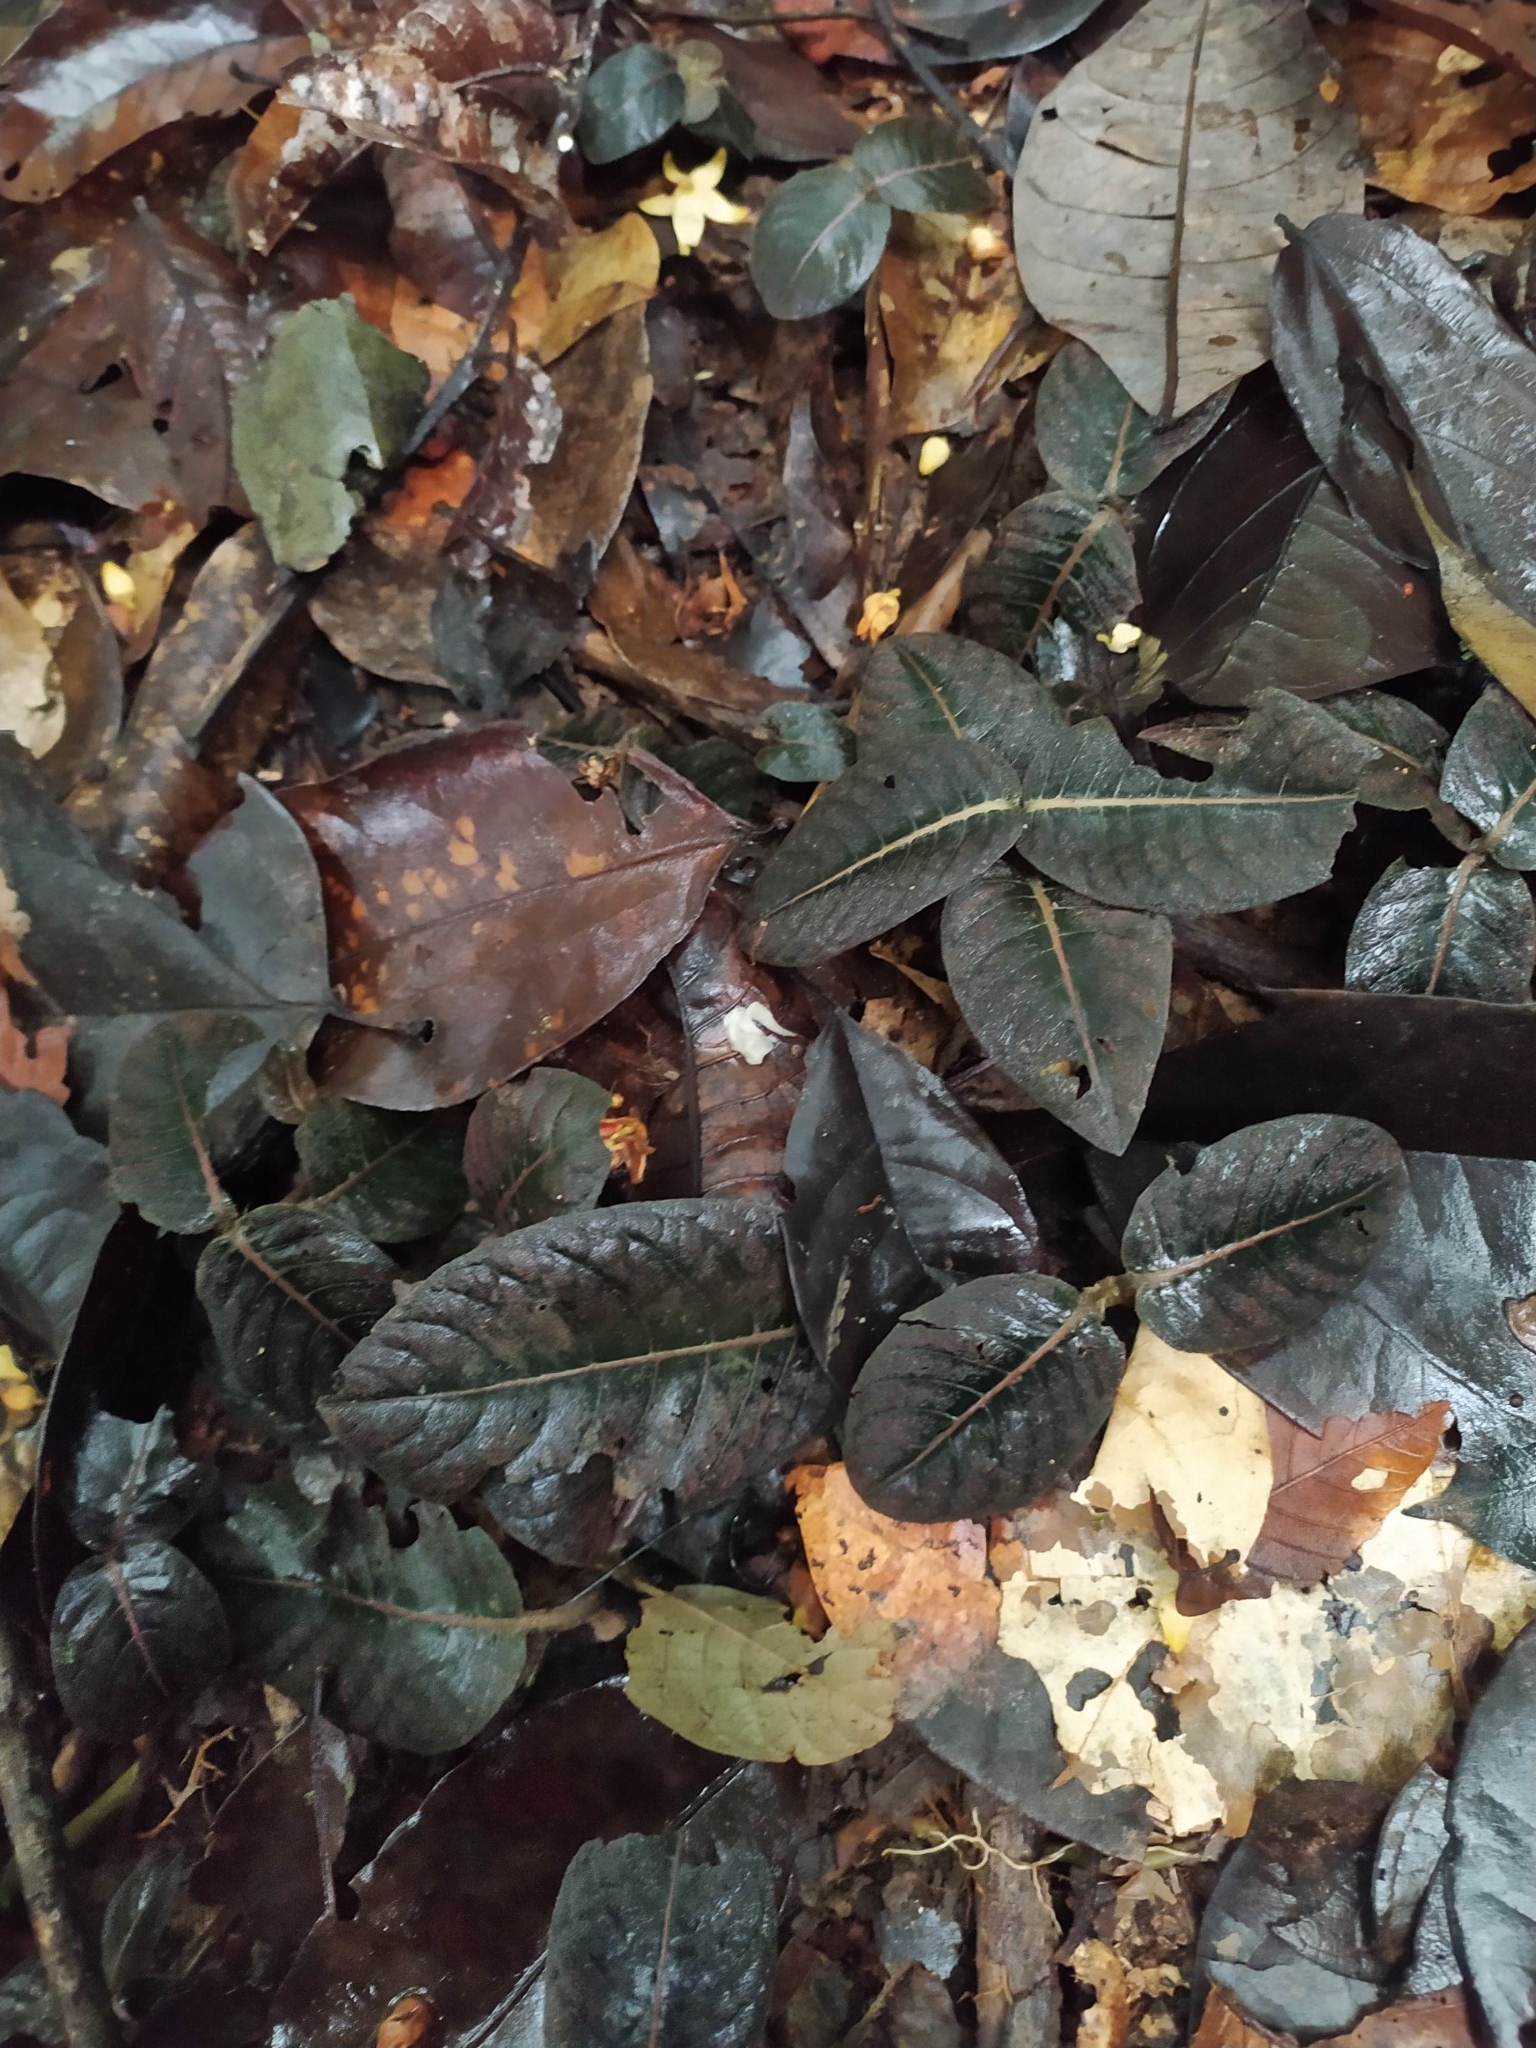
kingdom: Plantae
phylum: Tracheophyta
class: Magnoliopsida
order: Gentianales
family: Rubiaceae
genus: Palicourea
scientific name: Palicourea alba
